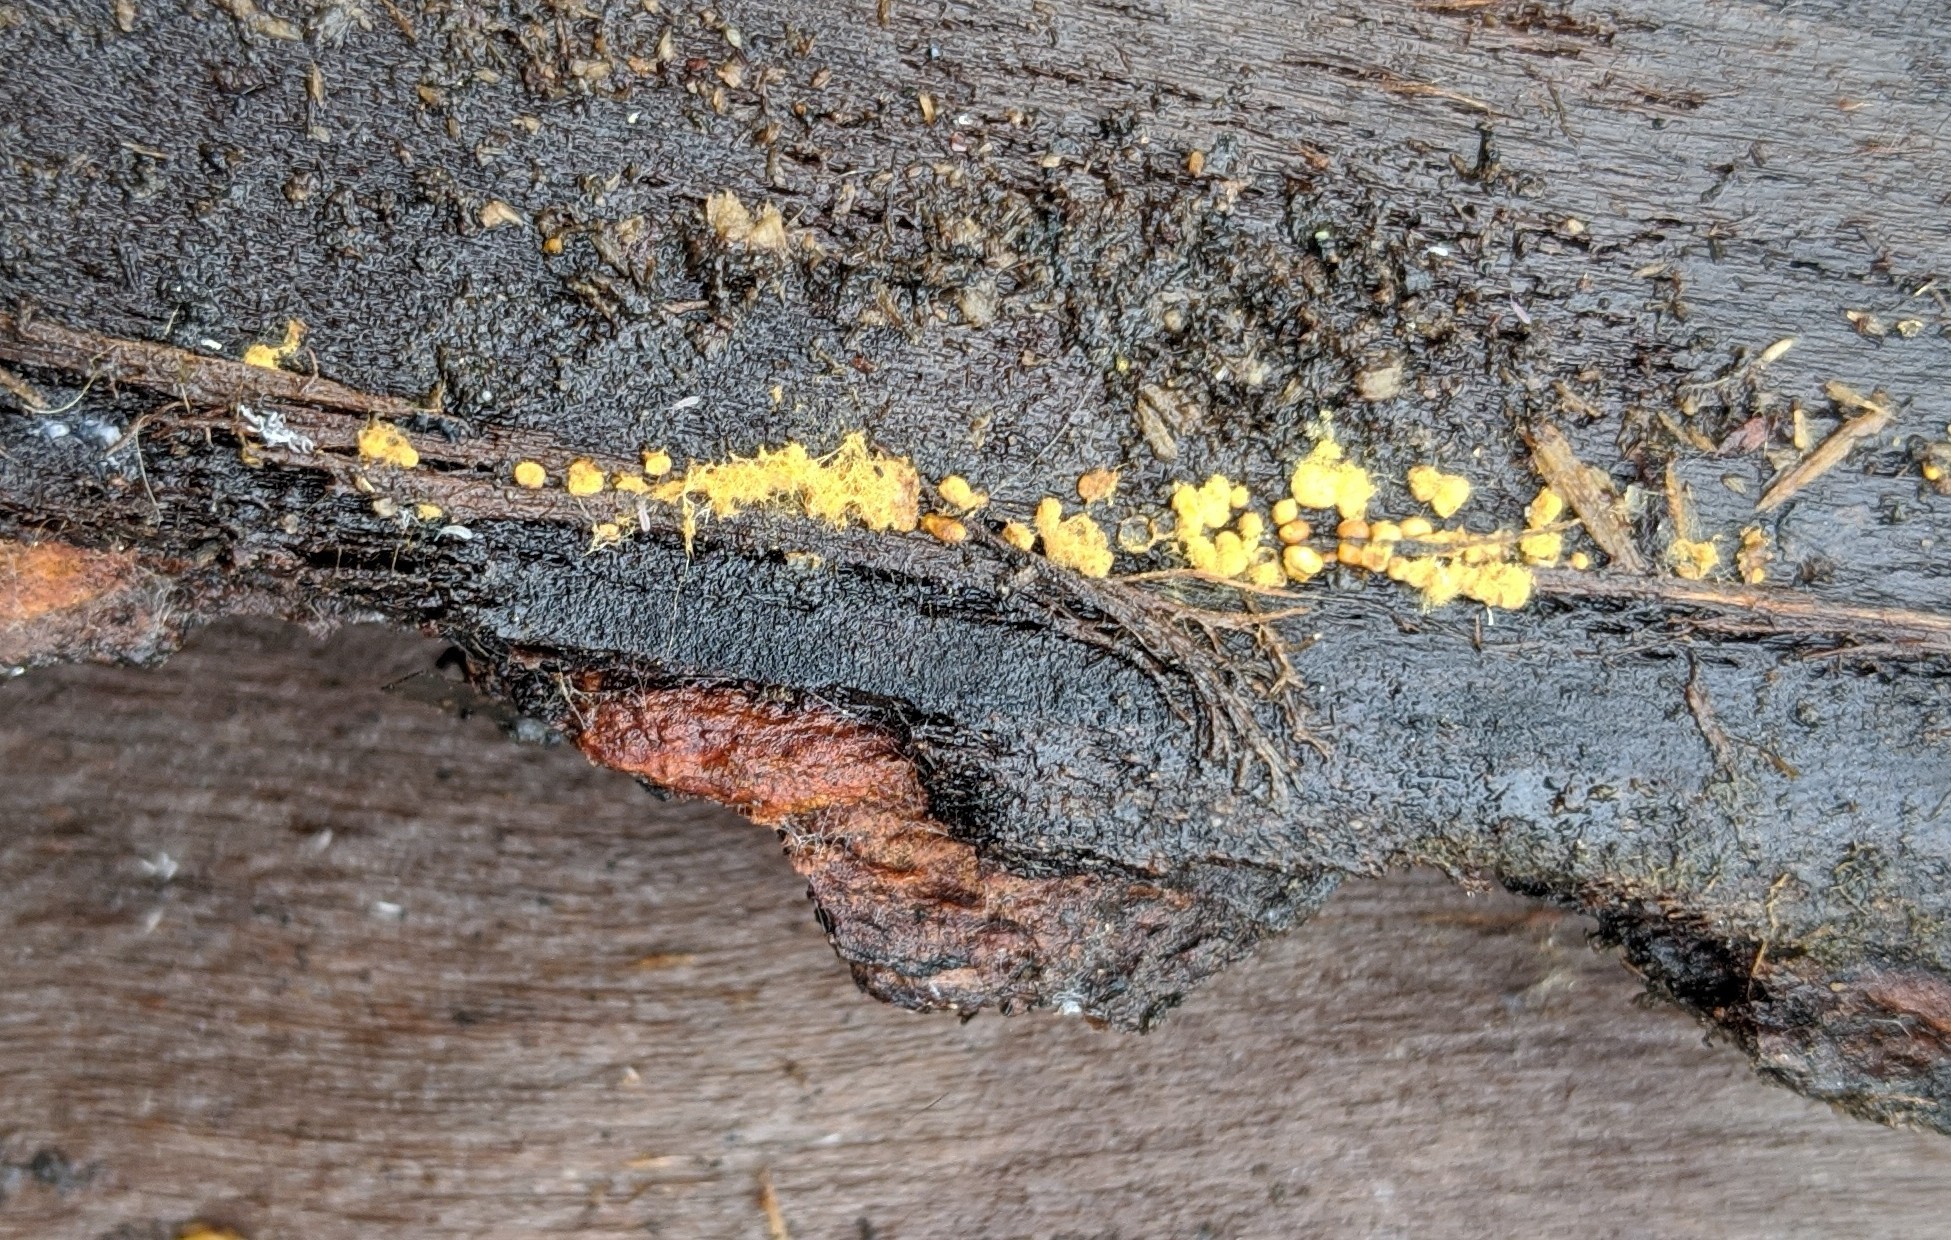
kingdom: Protozoa
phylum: Mycetozoa
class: Myxomycetes
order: Physarales
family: Physaraceae
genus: Fuligo
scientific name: Fuligo septica
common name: Dog vomit slime mold
